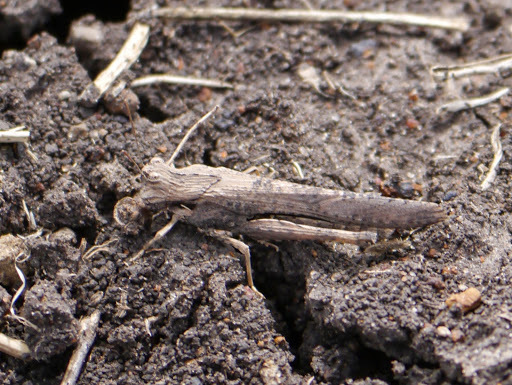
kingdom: Animalia
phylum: Arthropoda
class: Insecta
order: Orthoptera
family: Acrididae
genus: Morphacris
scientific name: Morphacris fasciata
